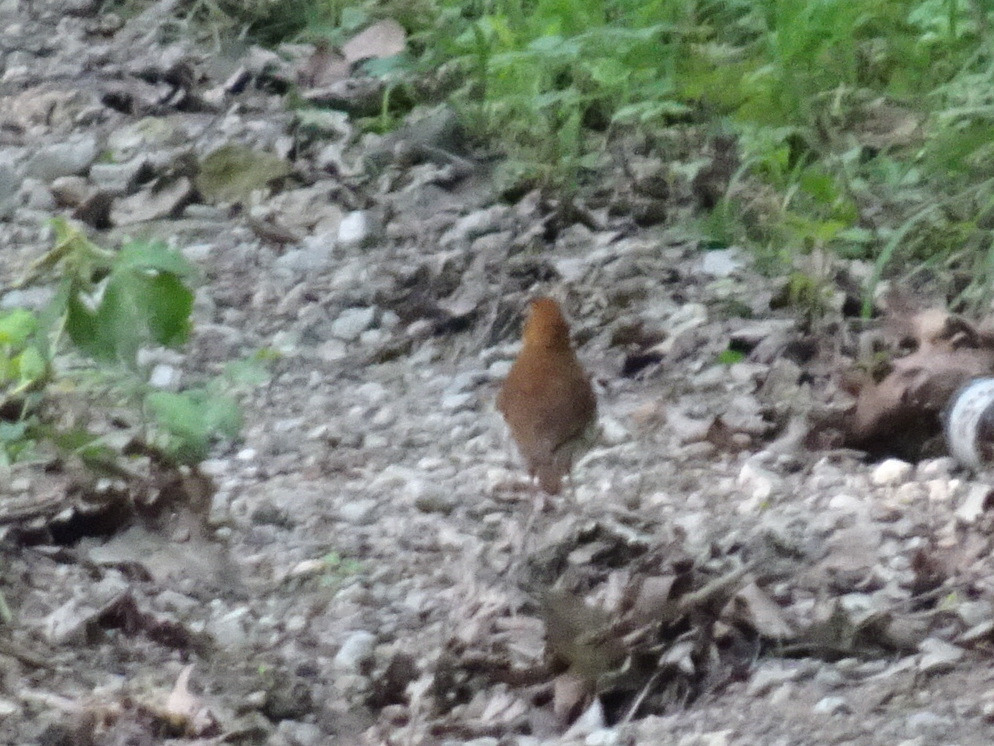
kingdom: Animalia
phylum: Chordata
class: Aves
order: Passeriformes
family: Turdidae
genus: Hylocichla
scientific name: Hylocichla mustelina
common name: Wood thrush
